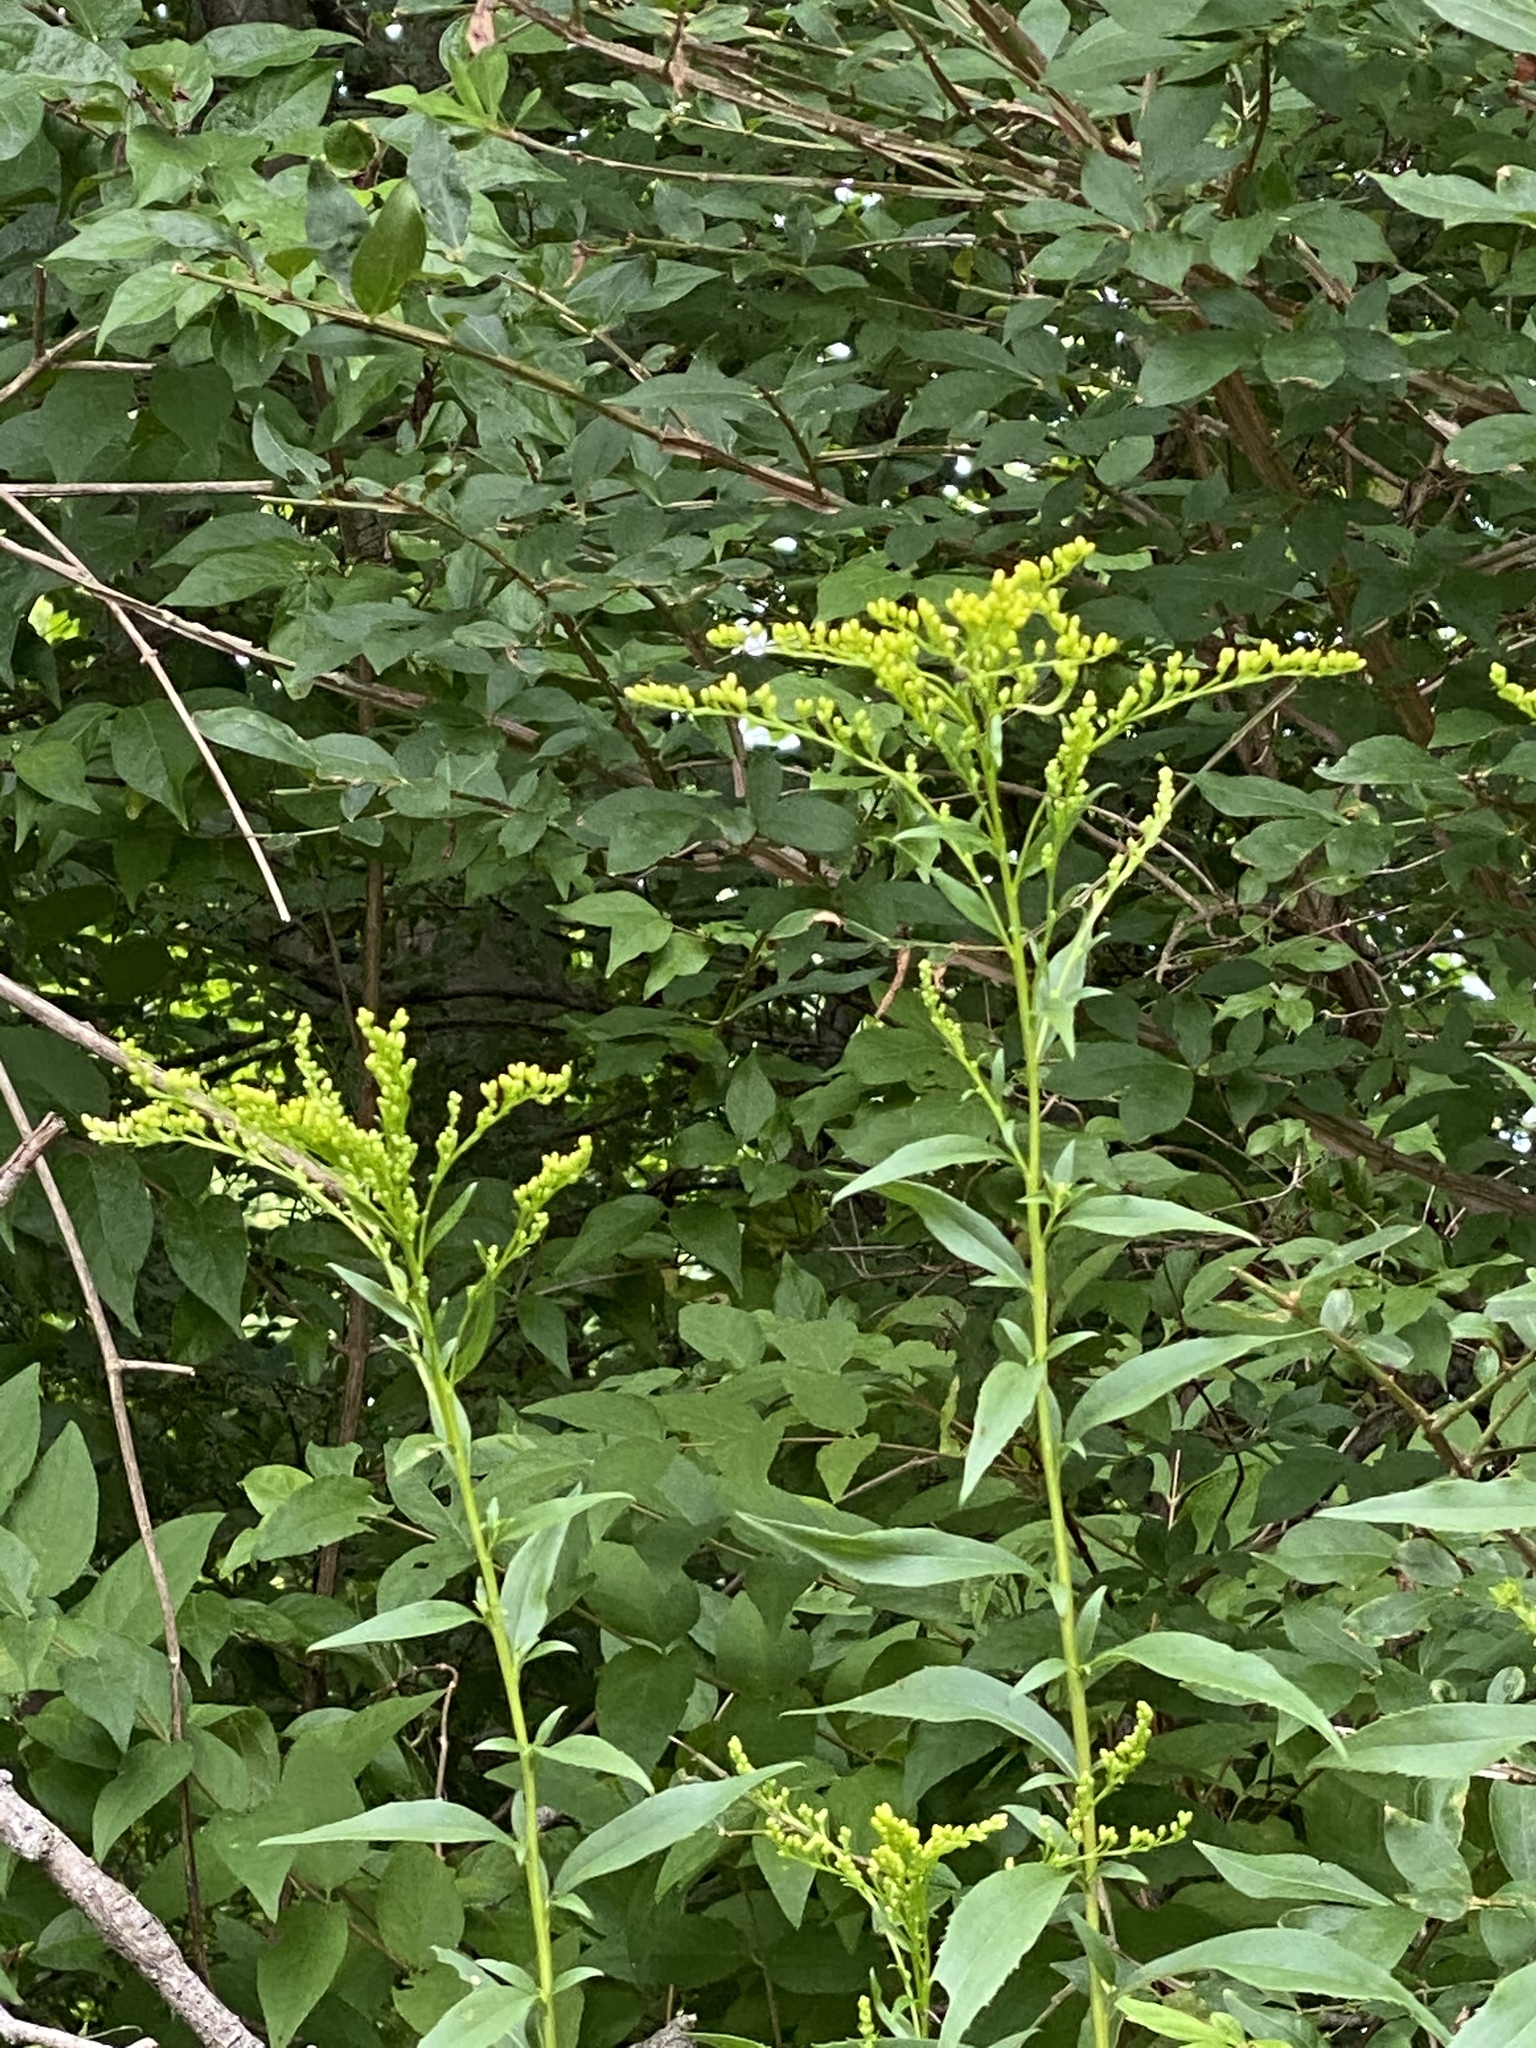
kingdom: Plantae
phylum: Tracheophyta
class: Magnoliopsida
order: Asterales
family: Asteraceae
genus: Solidago
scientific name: Solidago juncea
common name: Early goldenrod
